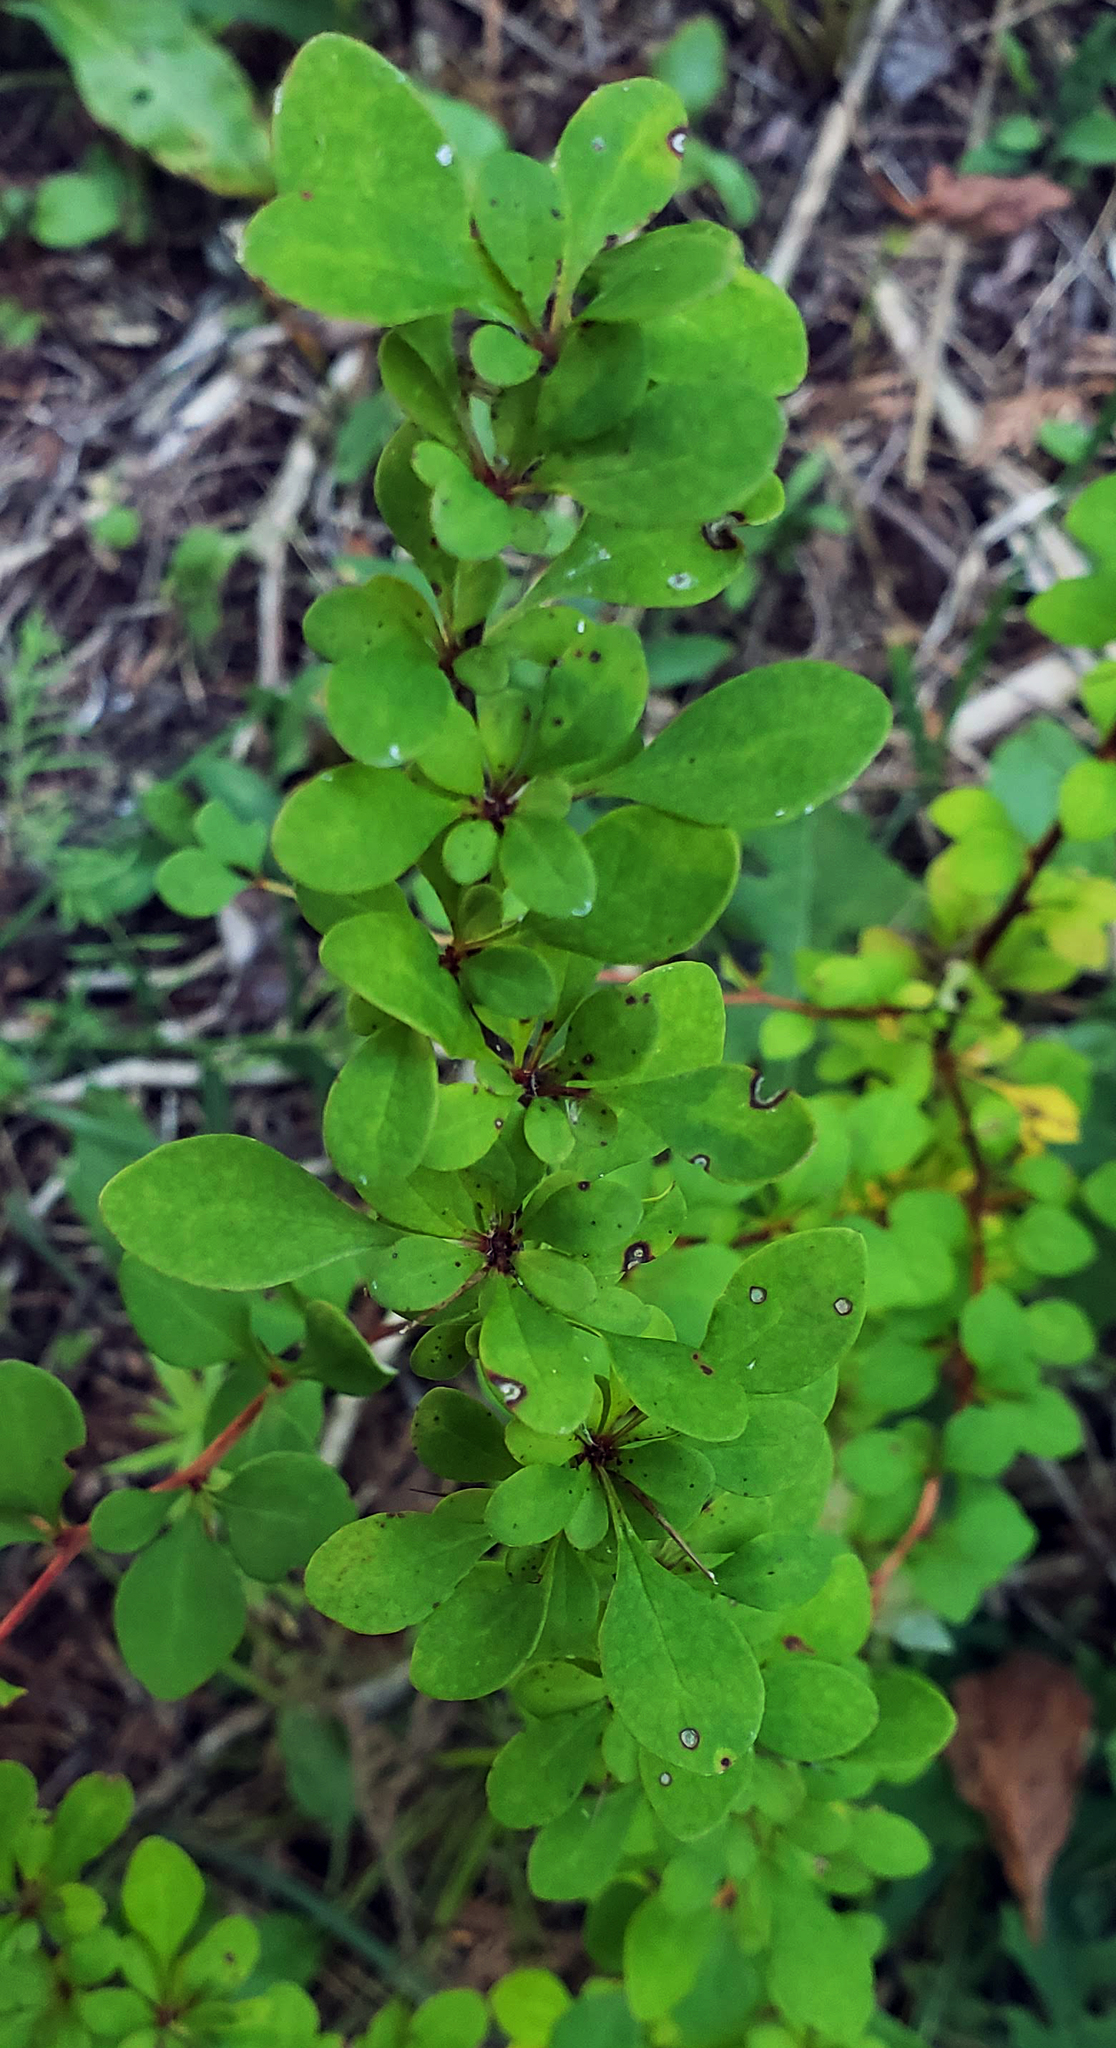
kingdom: Plantae
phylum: Tracheophyta
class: Magnoliopsida
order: Ranunculales
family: Berberidaceae
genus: Berberis
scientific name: Berberis thunbergii
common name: Japanese barberry
